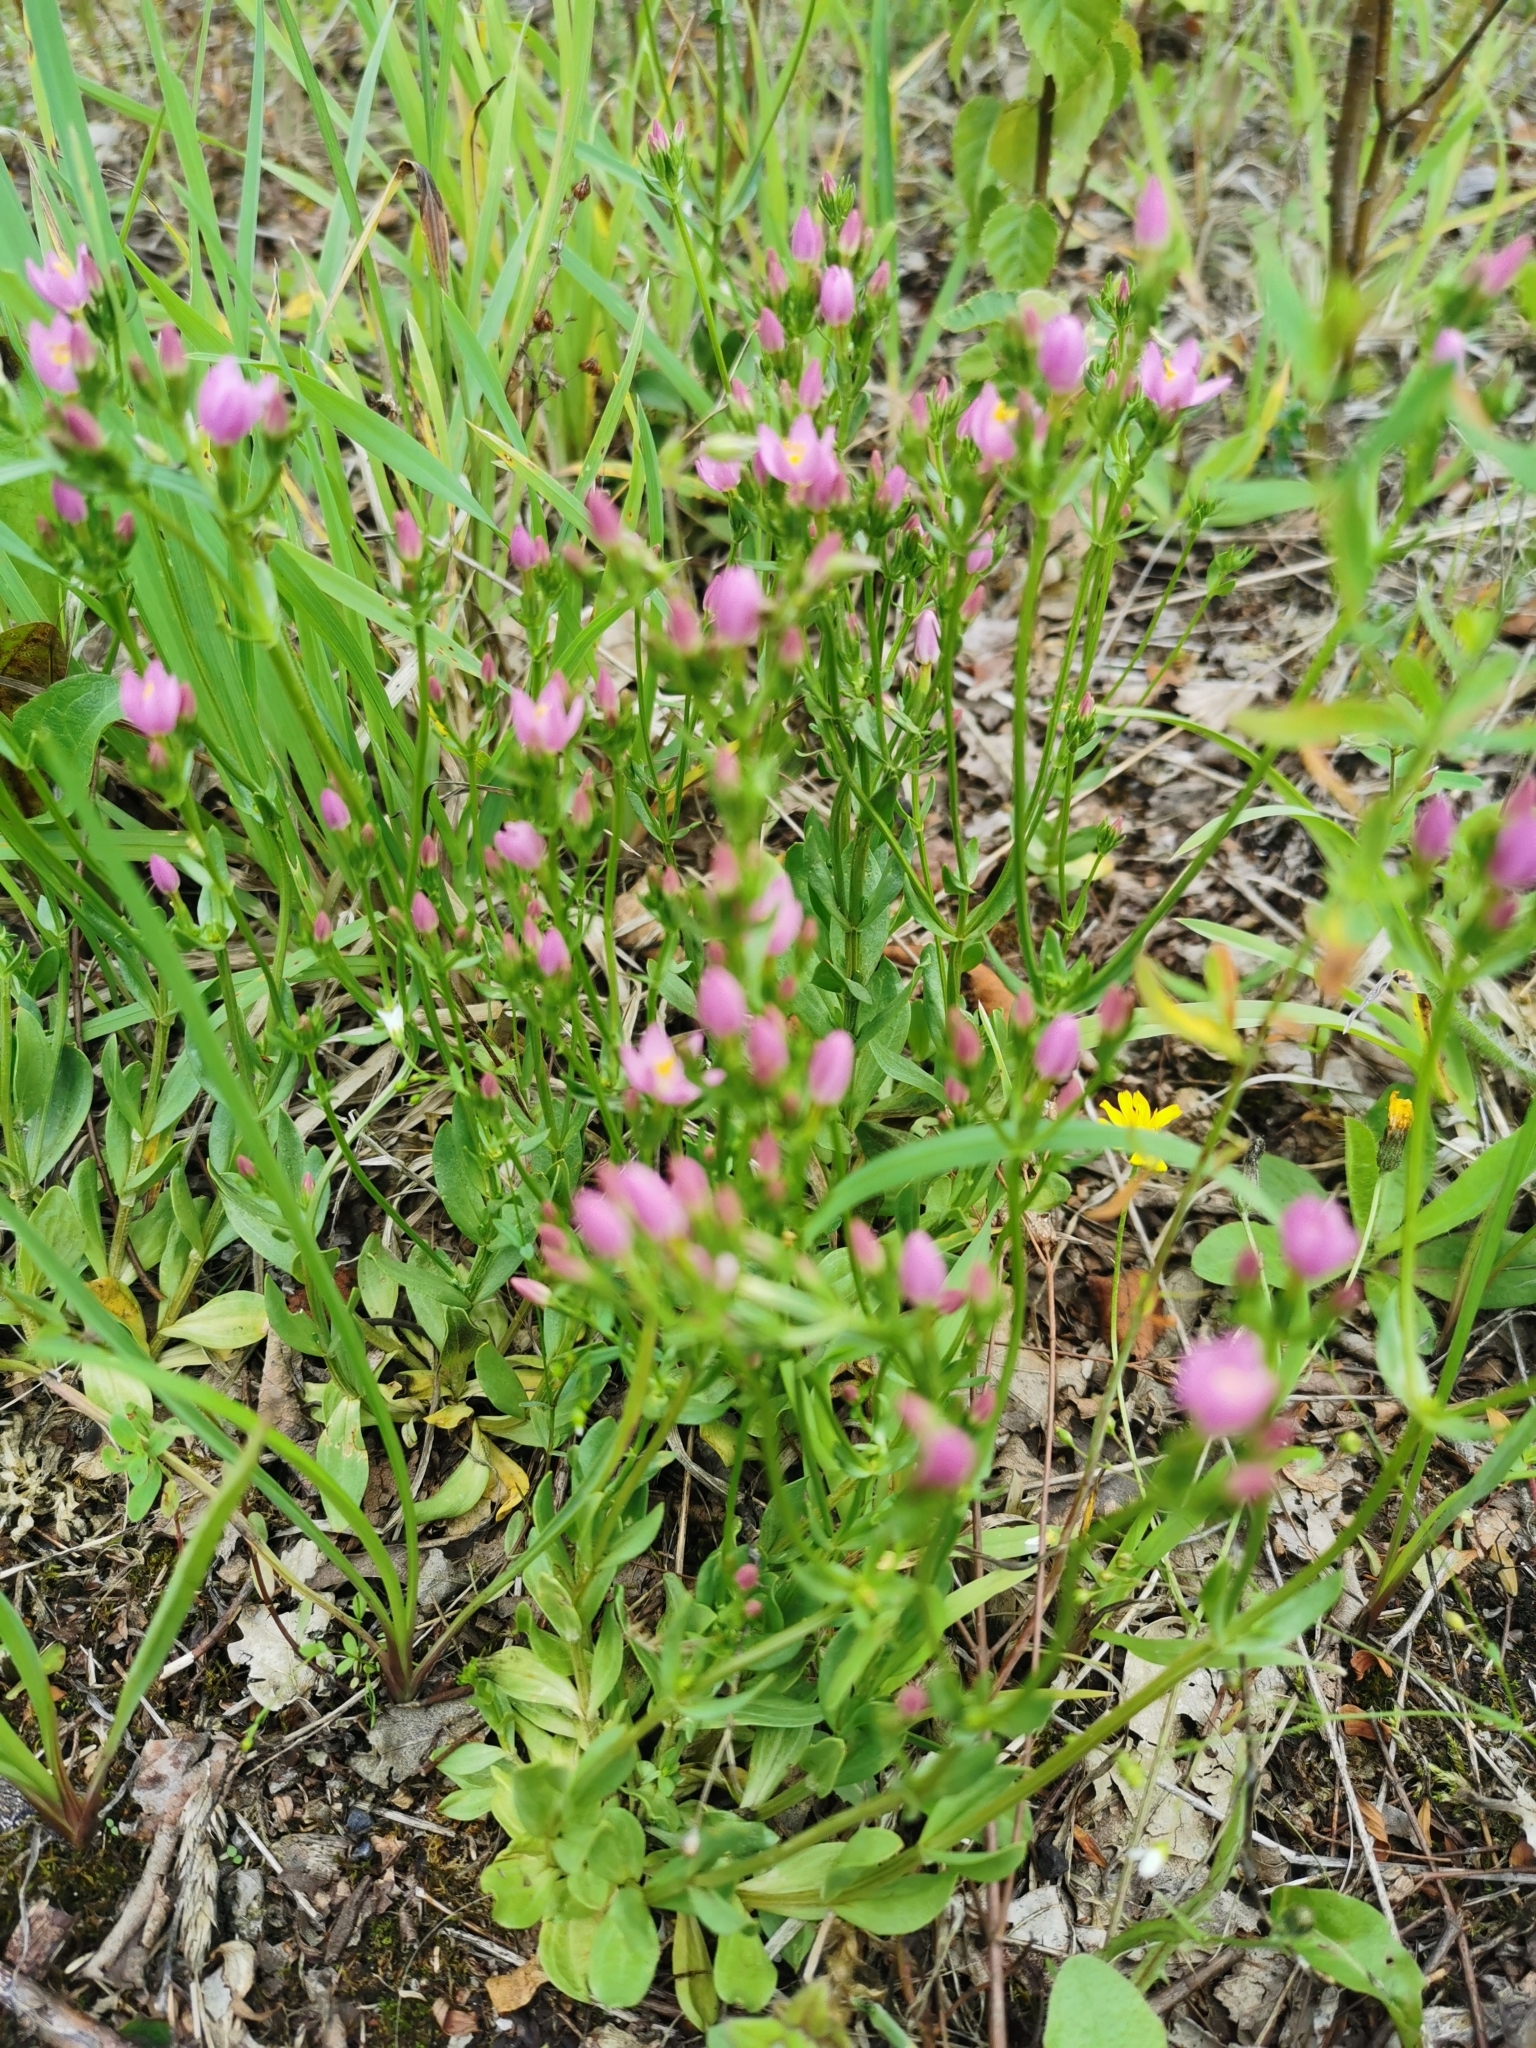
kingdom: Plantae
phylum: Tracheophyta
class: Magnoliopsida
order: Gentianales
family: Gentianaceae
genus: Centaurium
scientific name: Centaurium erythraea
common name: Common centaury
